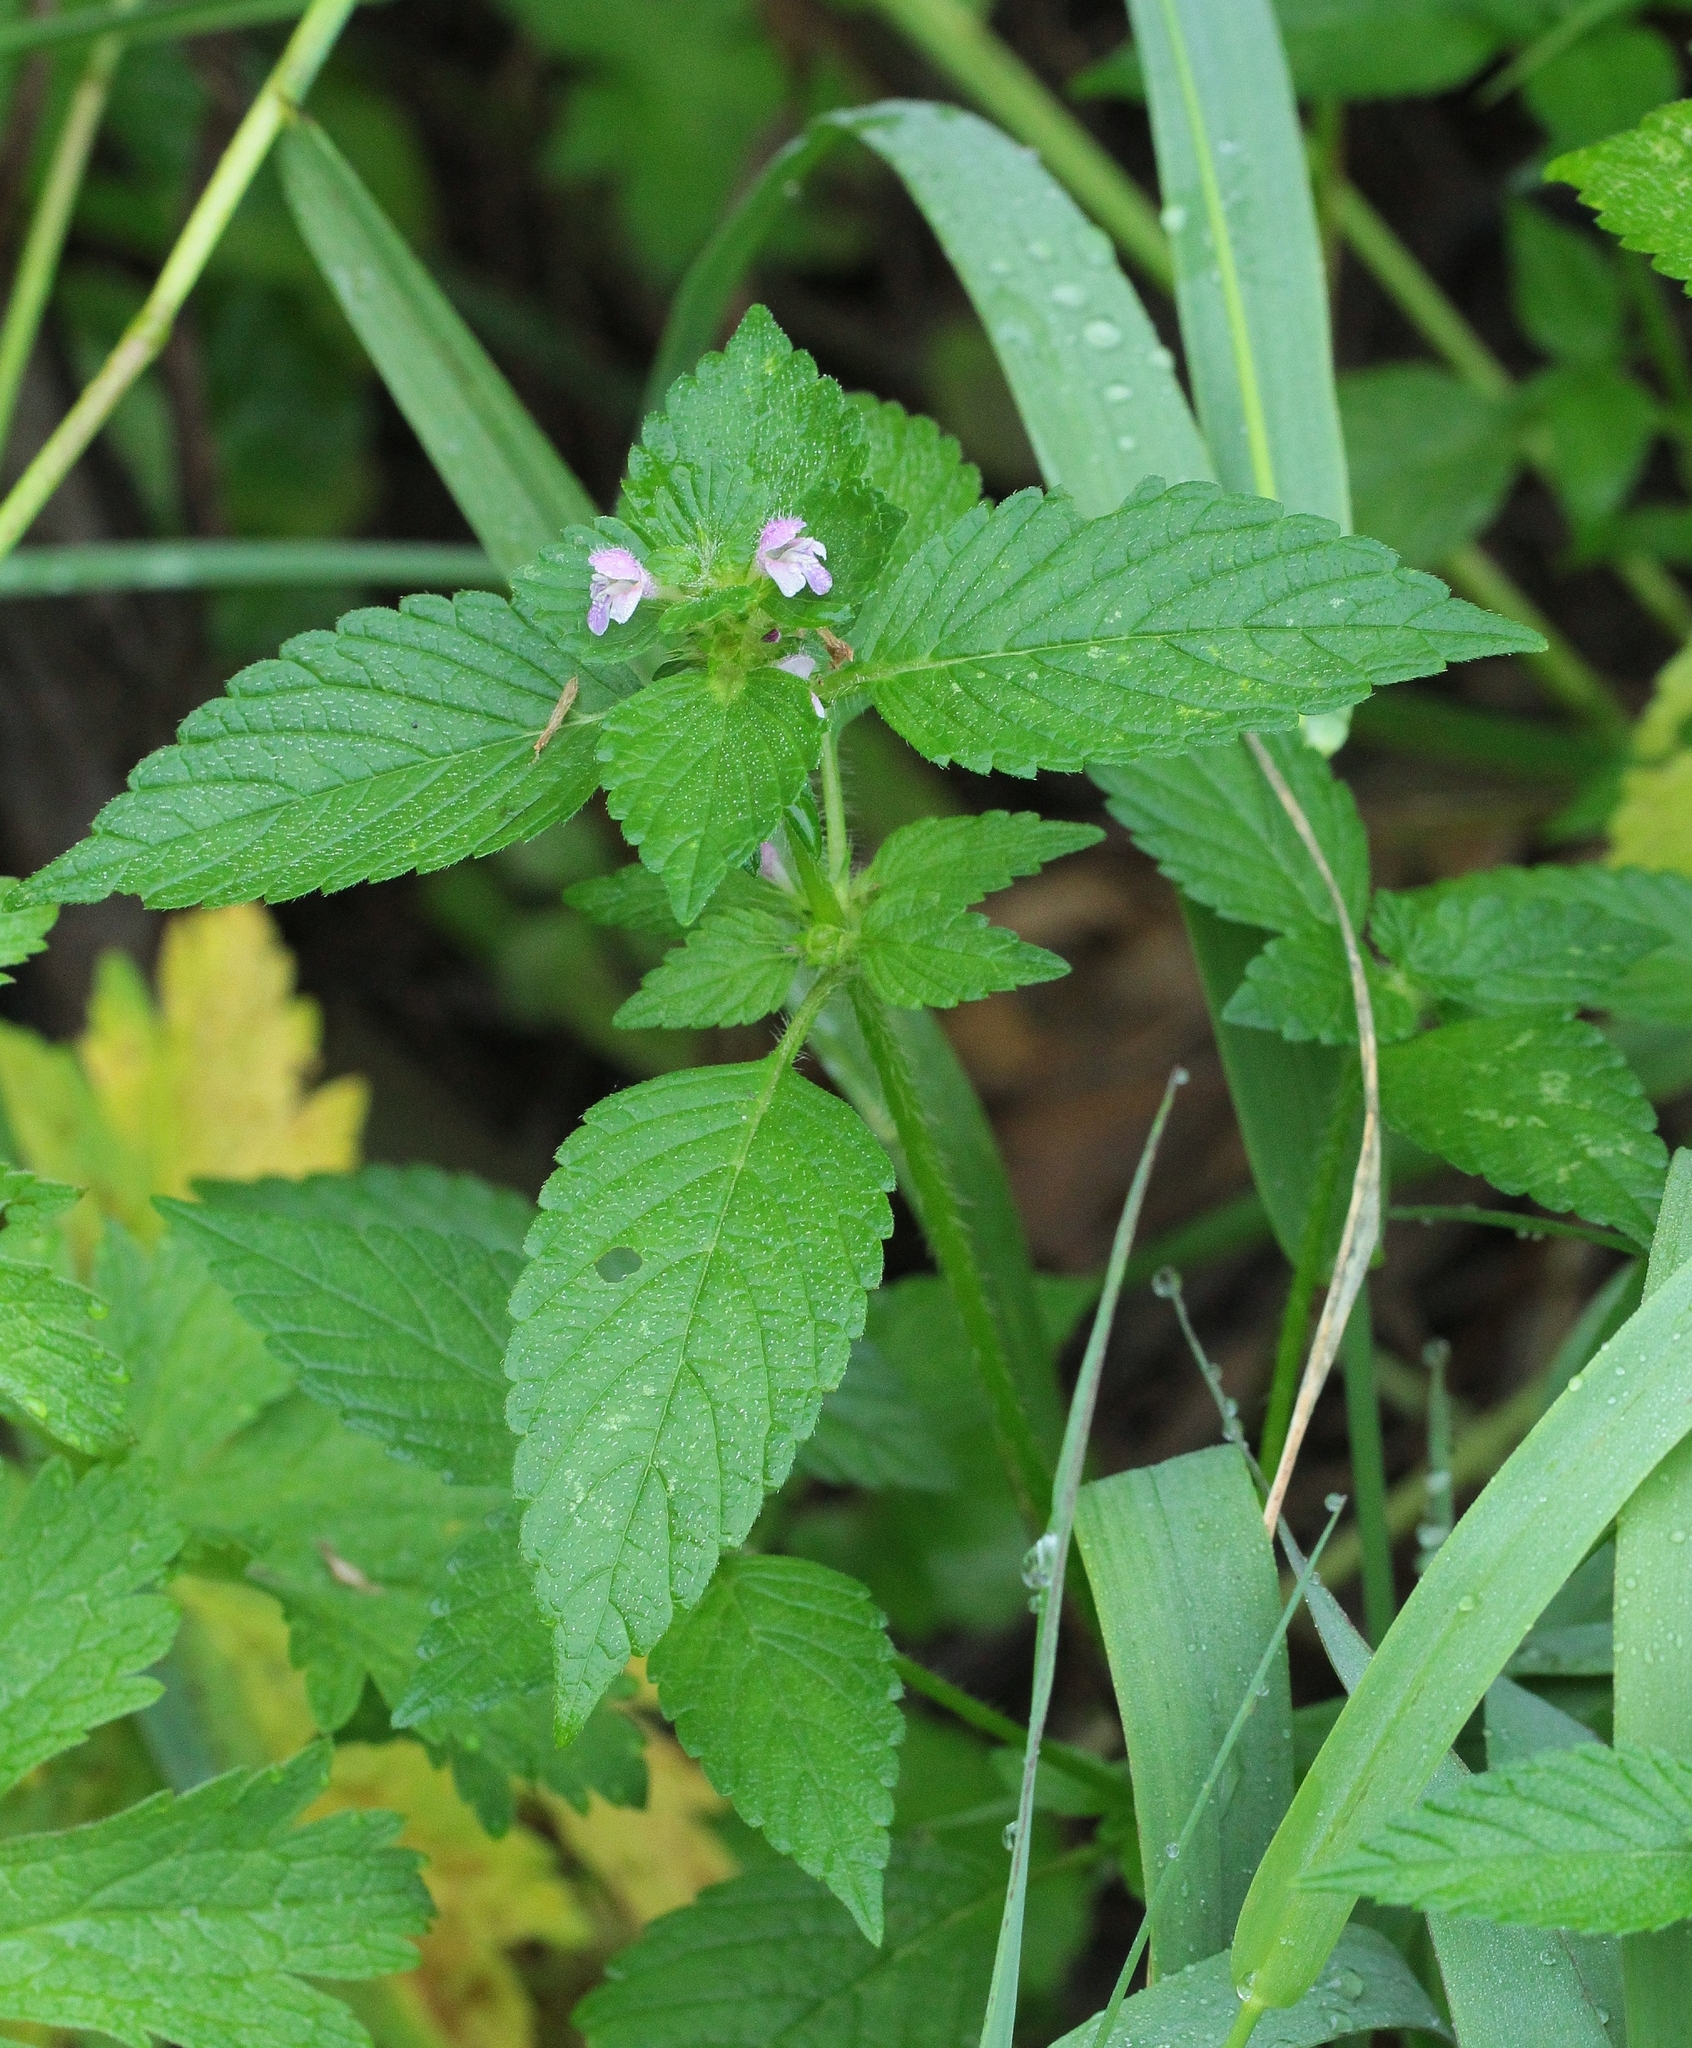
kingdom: Plantae
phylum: Tracheophyta
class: Magnoliopsida
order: Lamiales
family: Lamiaceae
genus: Galeopsis
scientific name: Galeopsis bifida
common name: Bifid hemp-nettle
